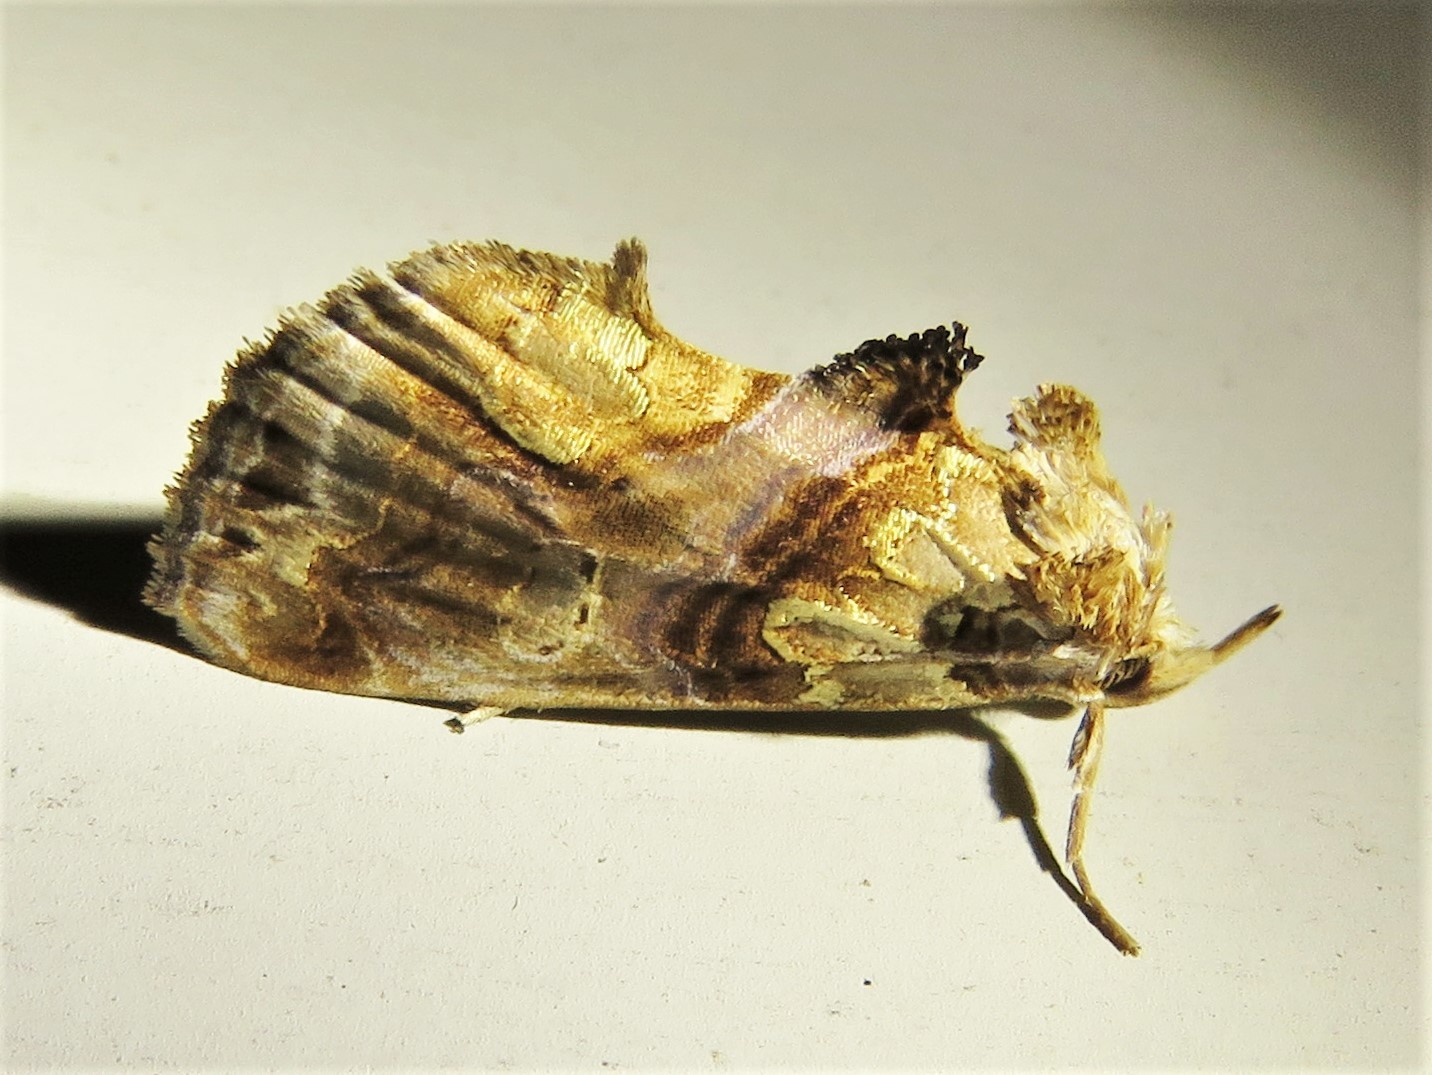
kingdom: Animalia
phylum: Arthropoda
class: Insecta
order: Lepidoptera
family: Erebidae
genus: Plusiodonta
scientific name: Plusiodonta compressipalpis
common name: Moonseed moth
